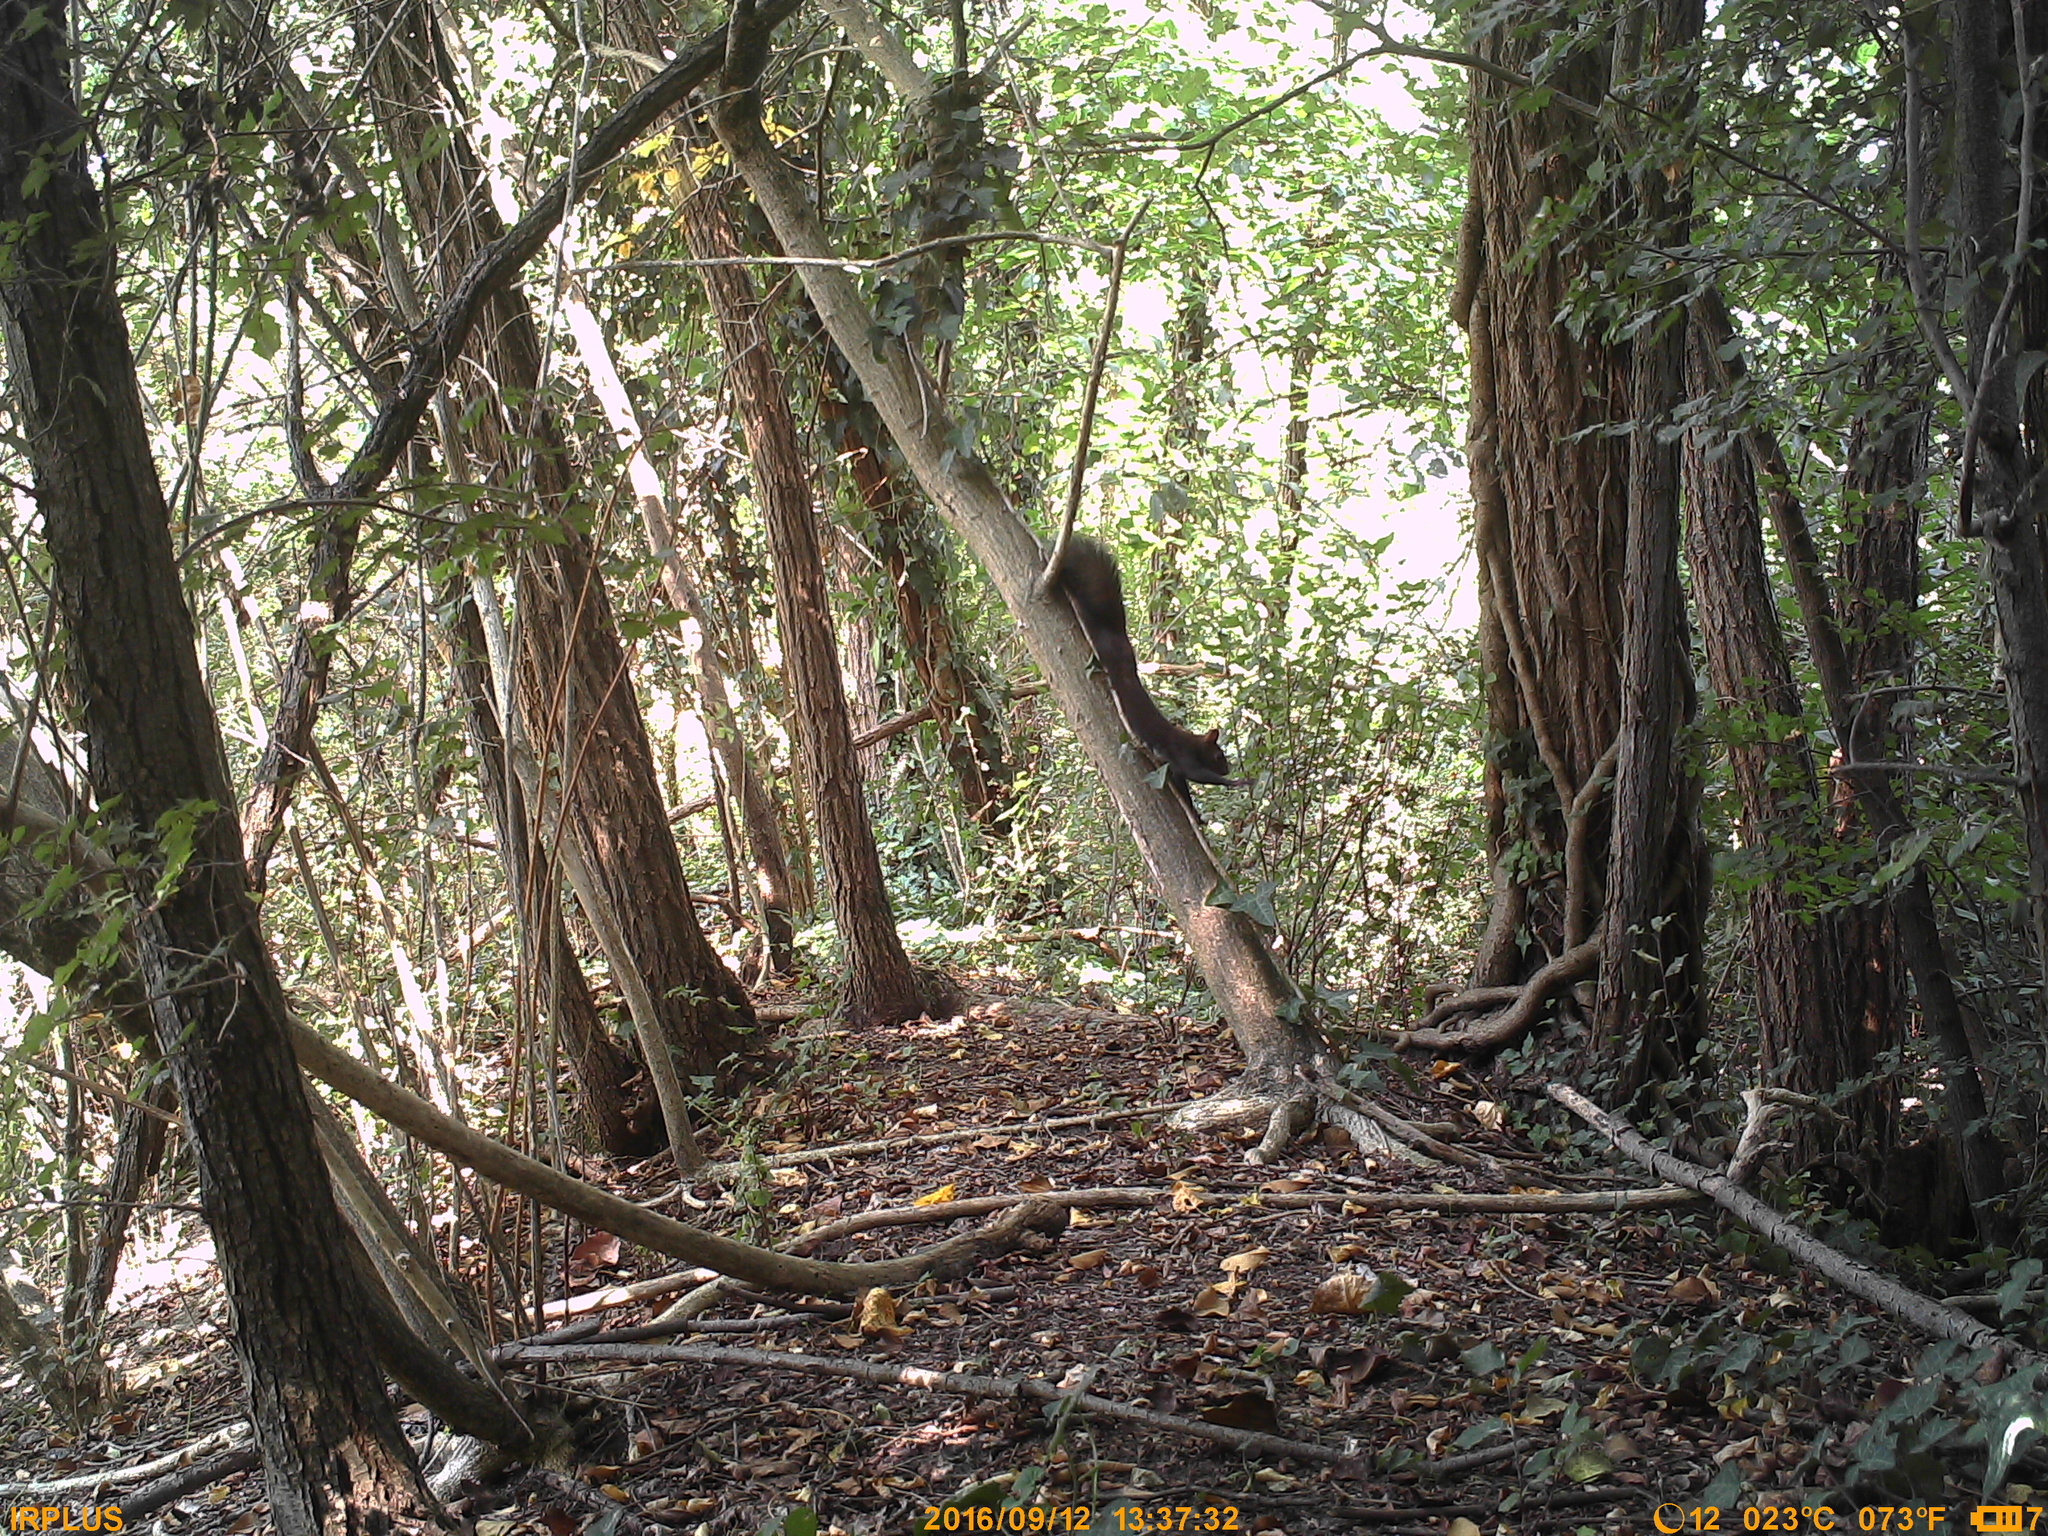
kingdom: Animalia
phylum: Chordata
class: Mammalia
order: Rodentia
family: Sciuridae
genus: Sciurus
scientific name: Sciurus vulgaris
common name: Eurasian red squirrel
